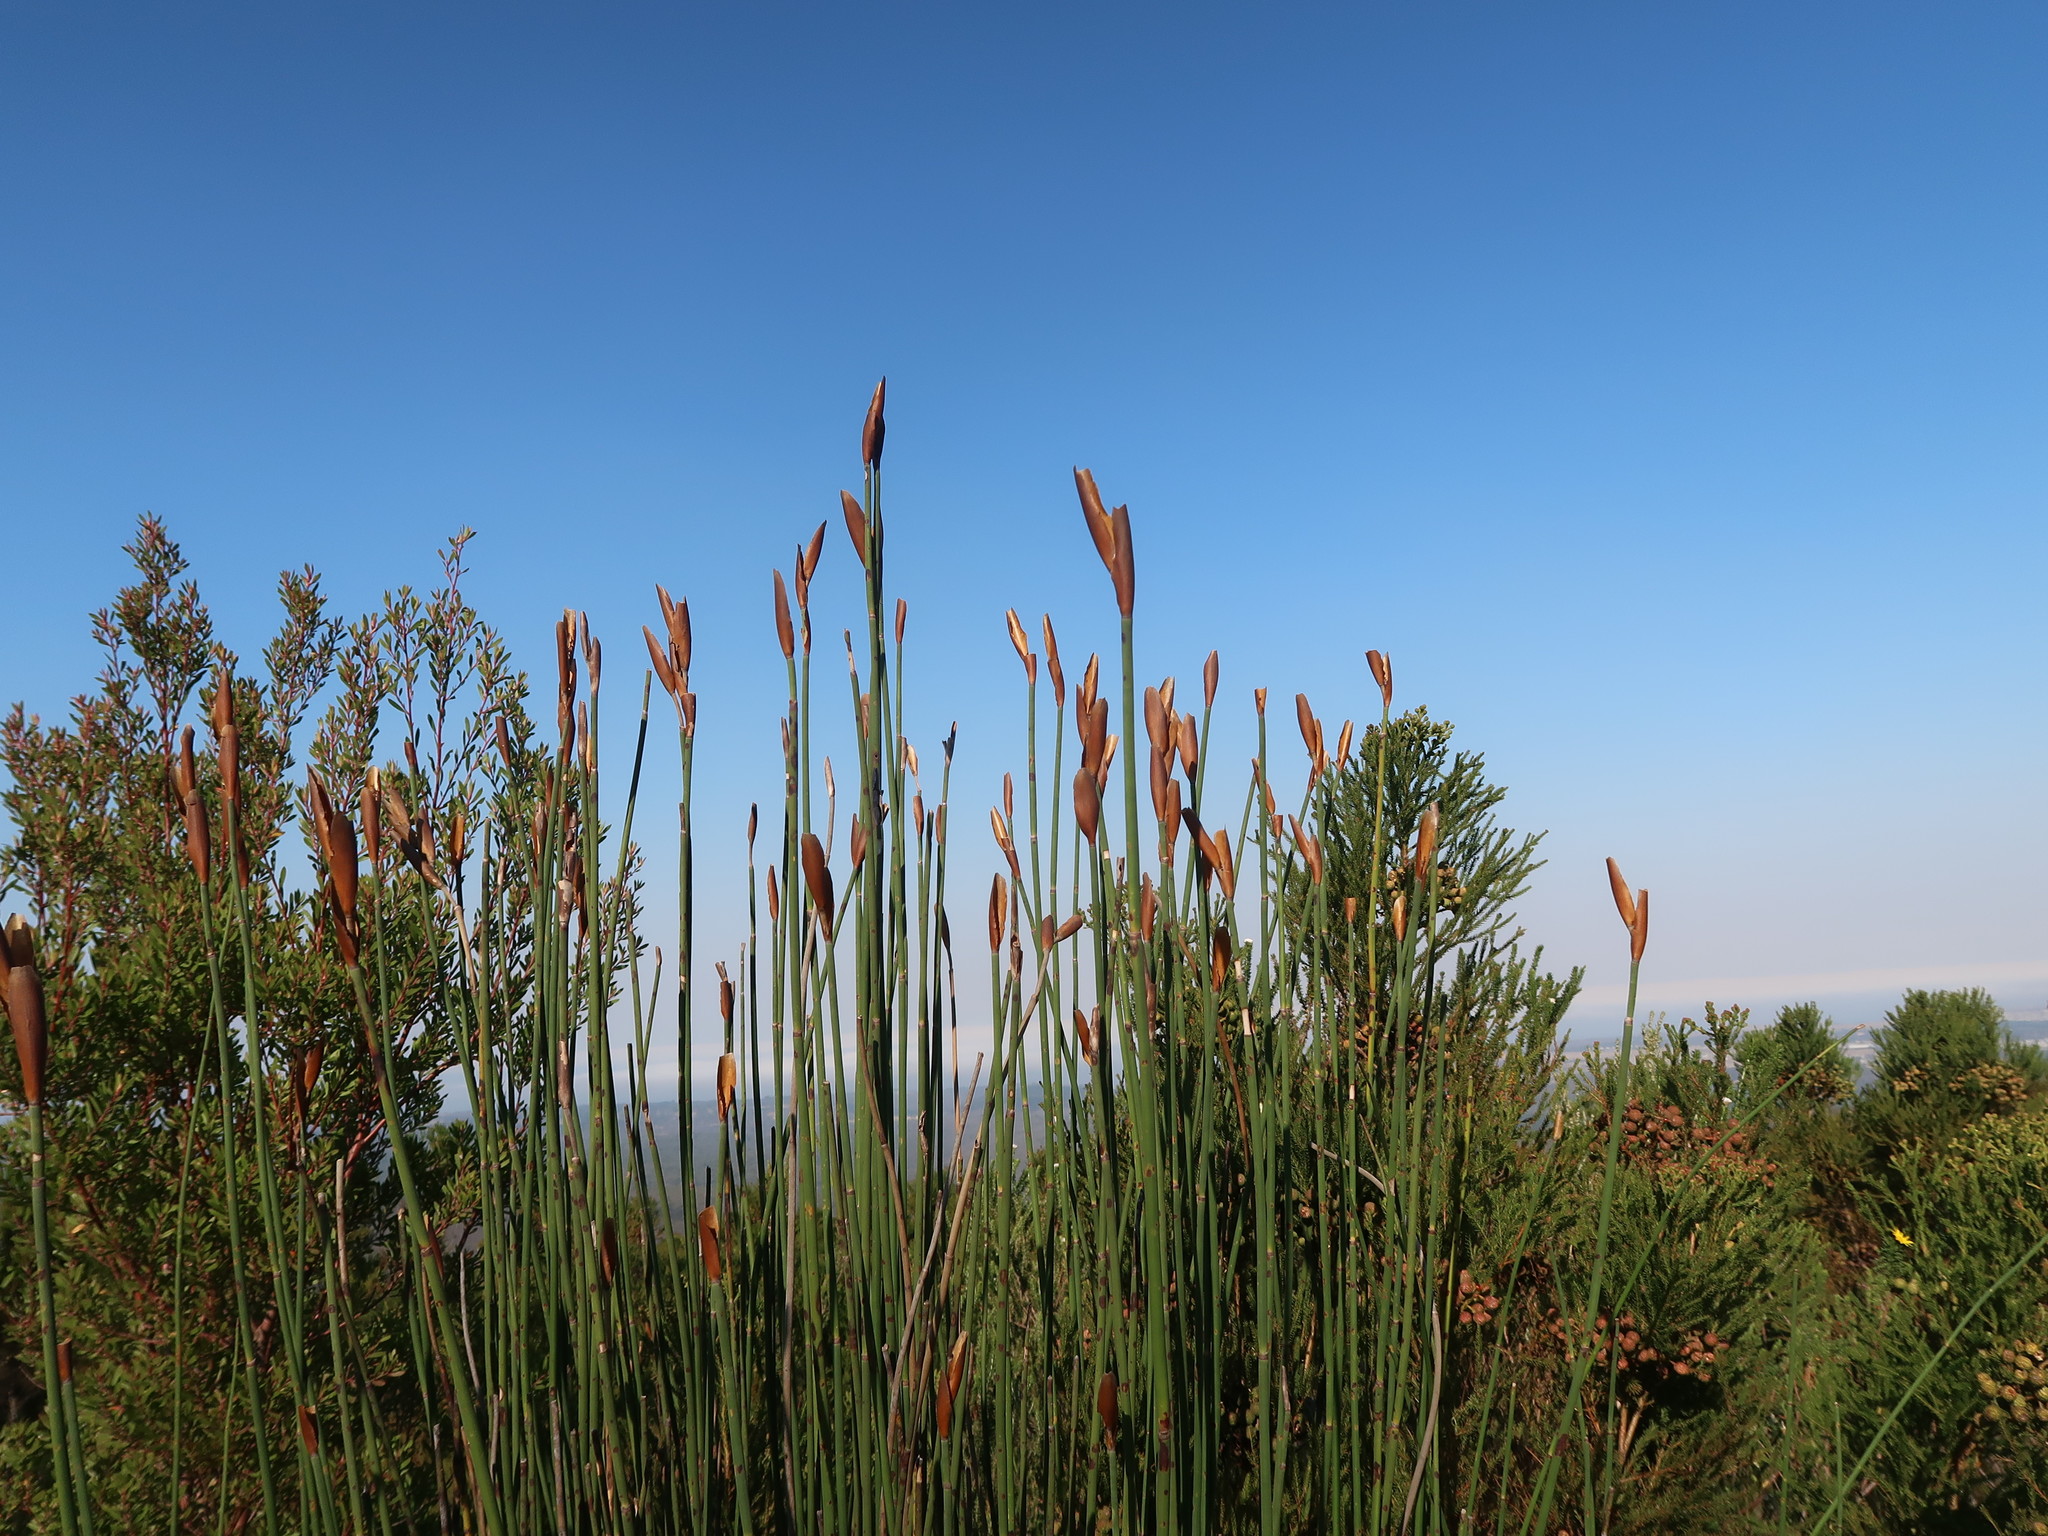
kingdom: Plantae
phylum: Tracheophyta
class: Liliopsida
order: Poales
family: Restionaceae
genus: Elegia
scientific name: Elegia thyrsoidea
